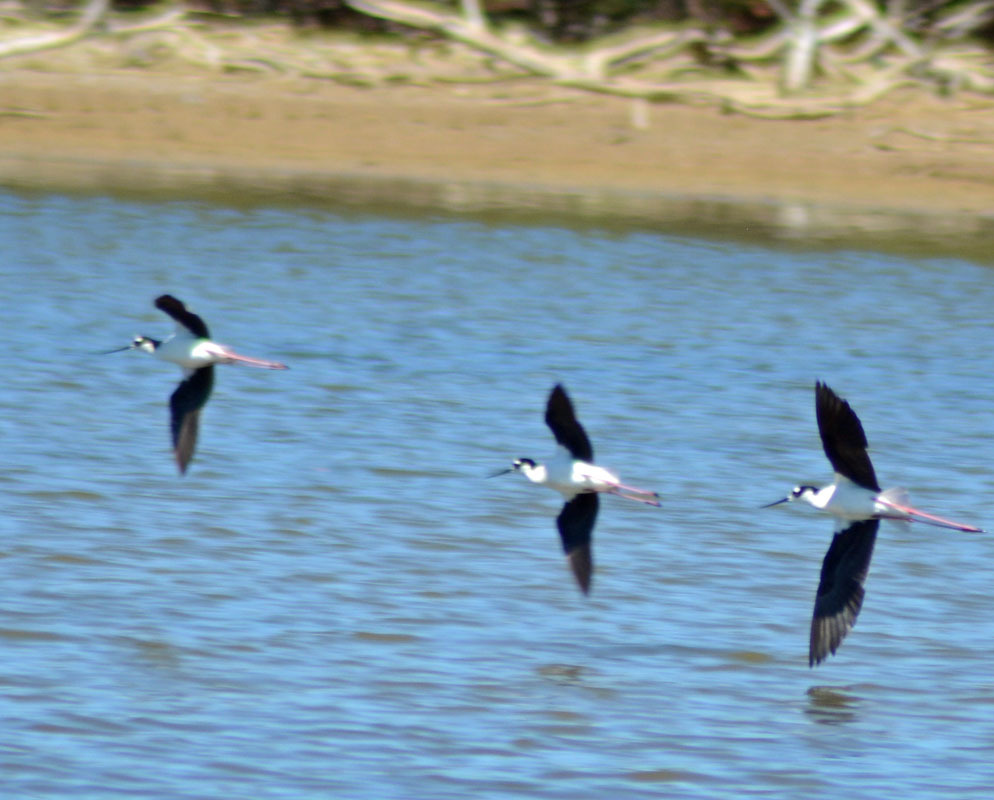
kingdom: Animalia
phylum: Chordata
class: Aves
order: Charadriiformes
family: Recurvirostridae
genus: Himantopus
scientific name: Himantopus mexicanus
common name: Black-necked stilt
